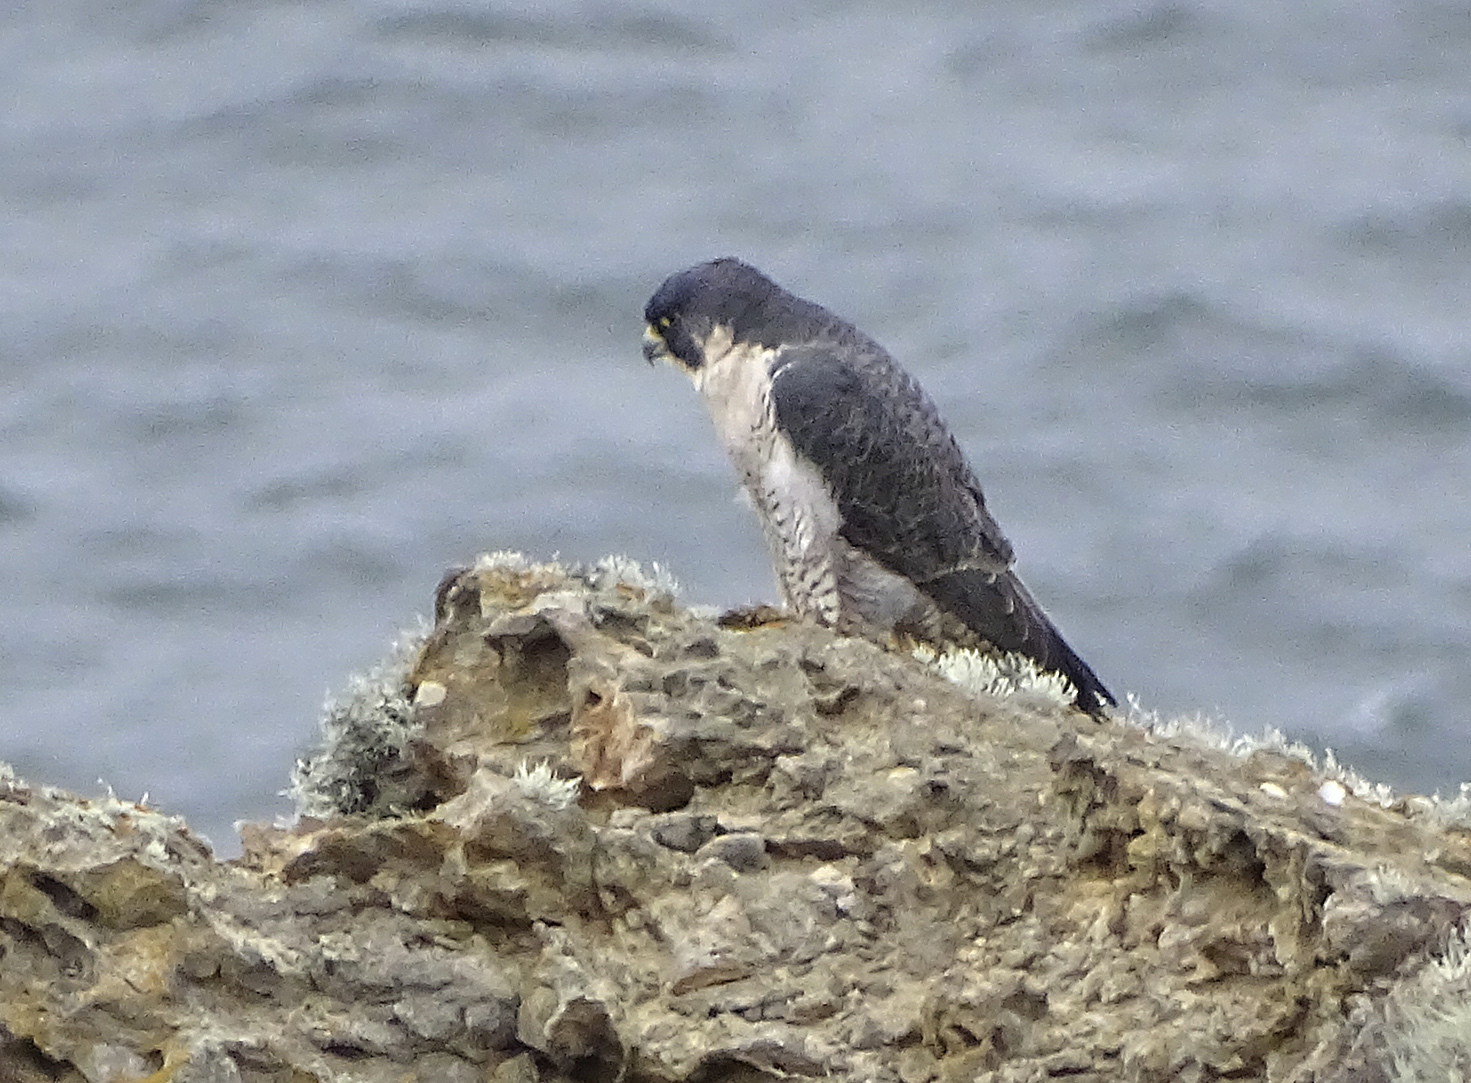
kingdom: Animalia
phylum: Chordata
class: Aves
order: Falconiformes
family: Falconidae
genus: Falco
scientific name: Falco peregrinus
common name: Peregrine falcon
